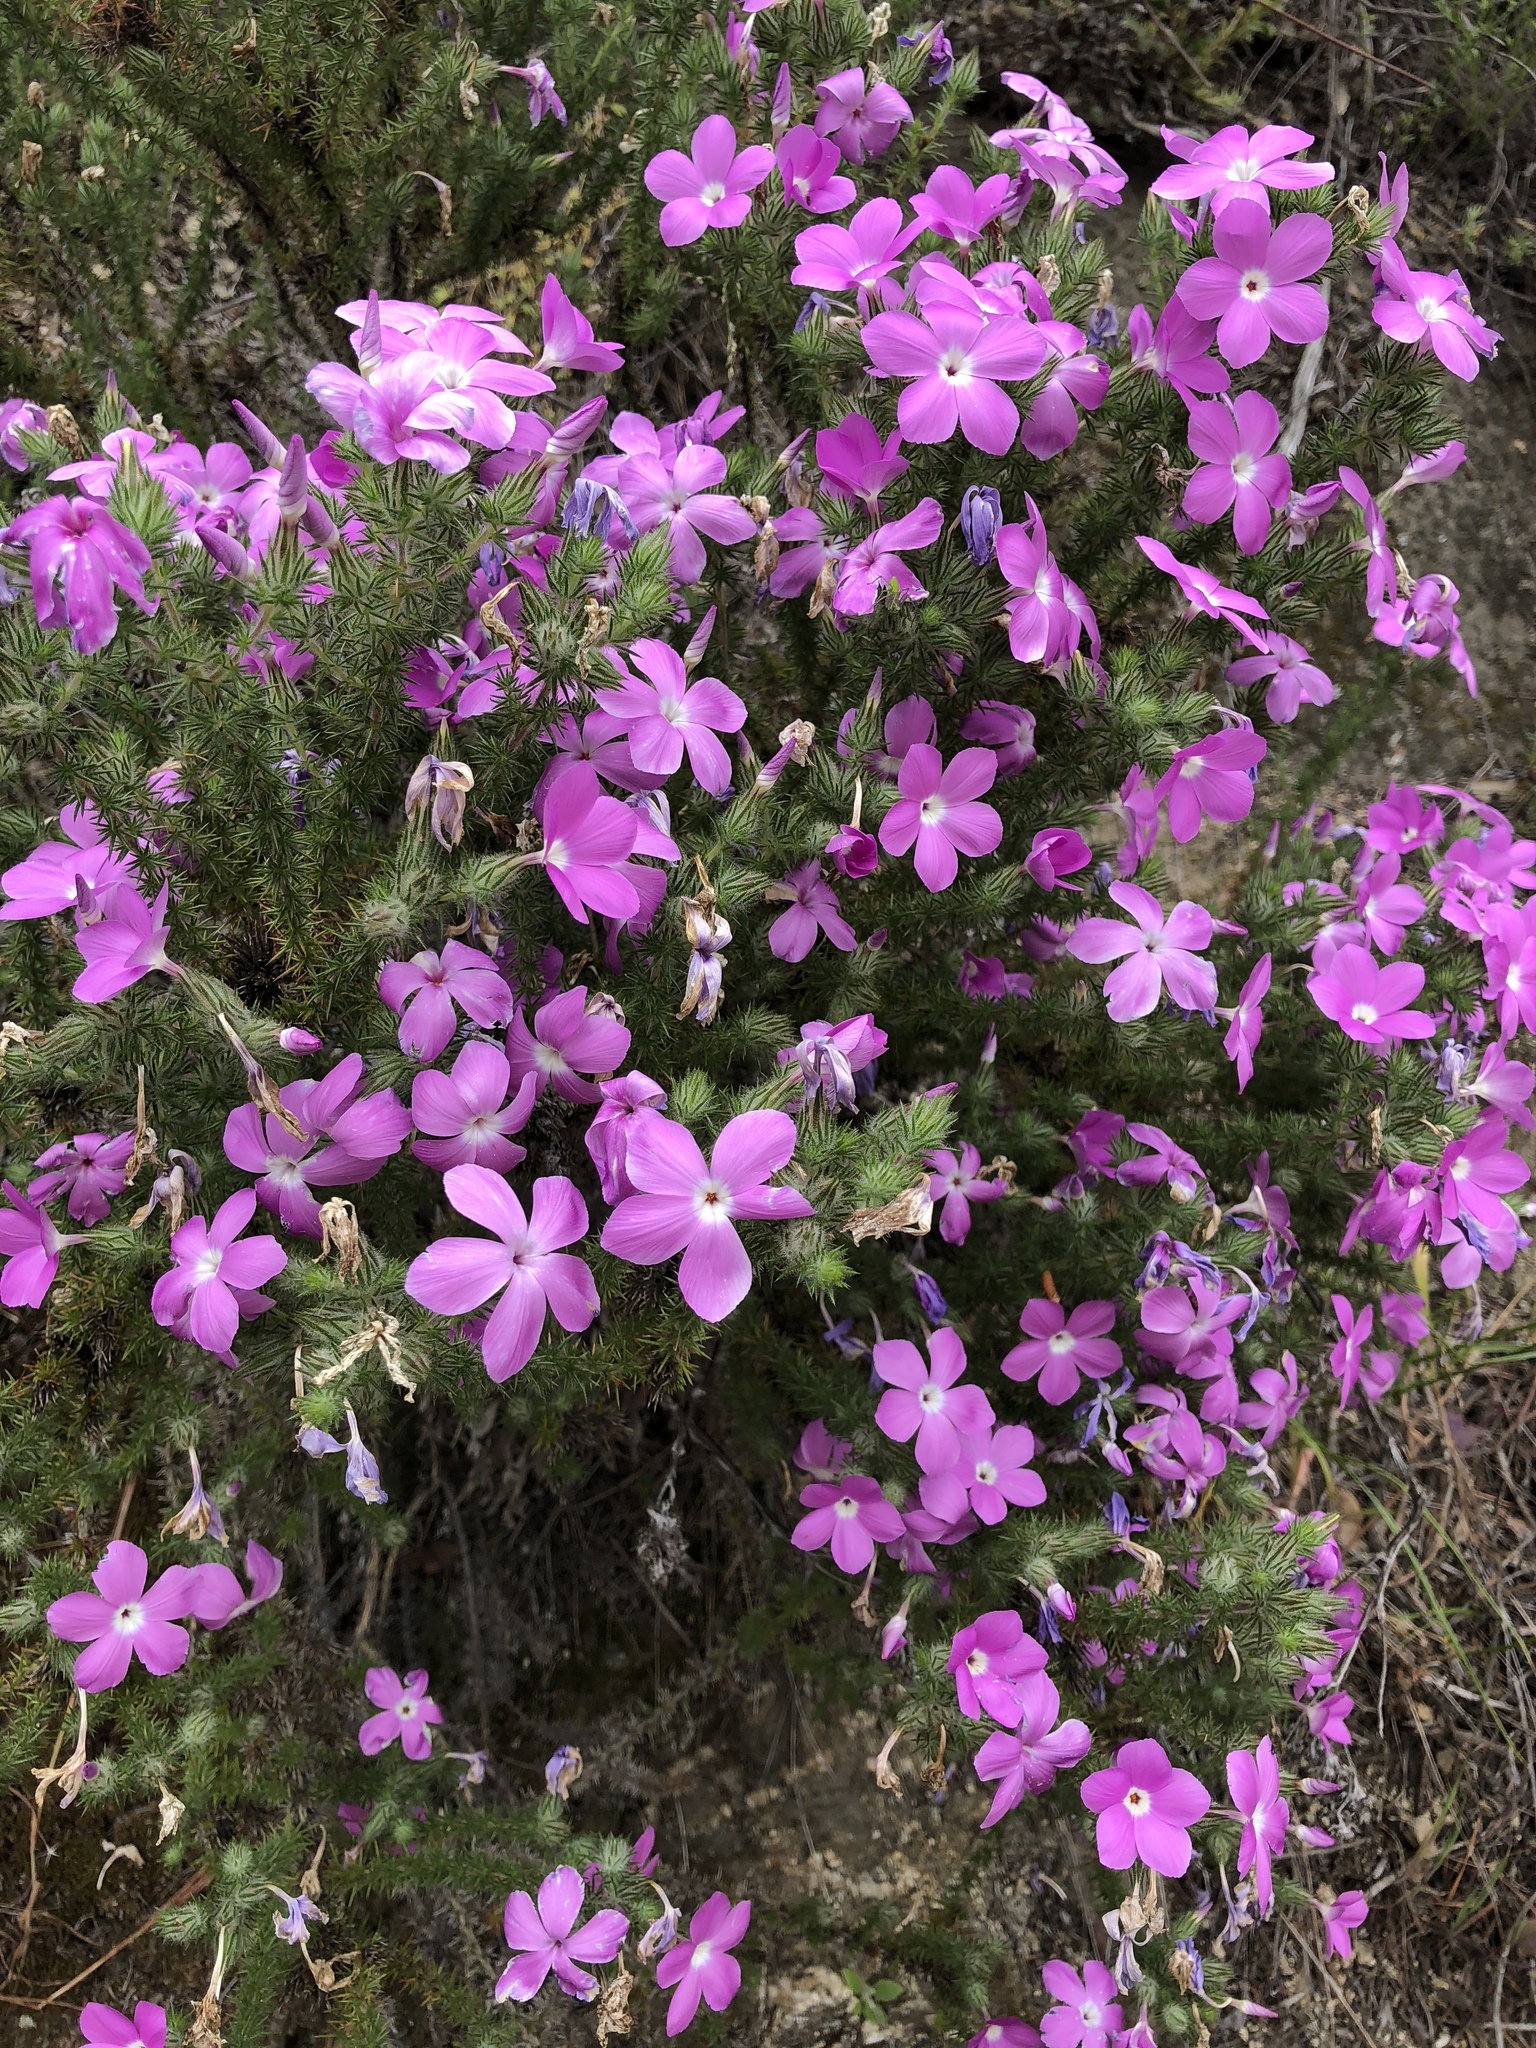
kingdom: Plantae
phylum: Tracheophyta
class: Magnoliopsida
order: Ericales
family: Polemoniaceae
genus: Linanthus
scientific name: Linanthus californicus
